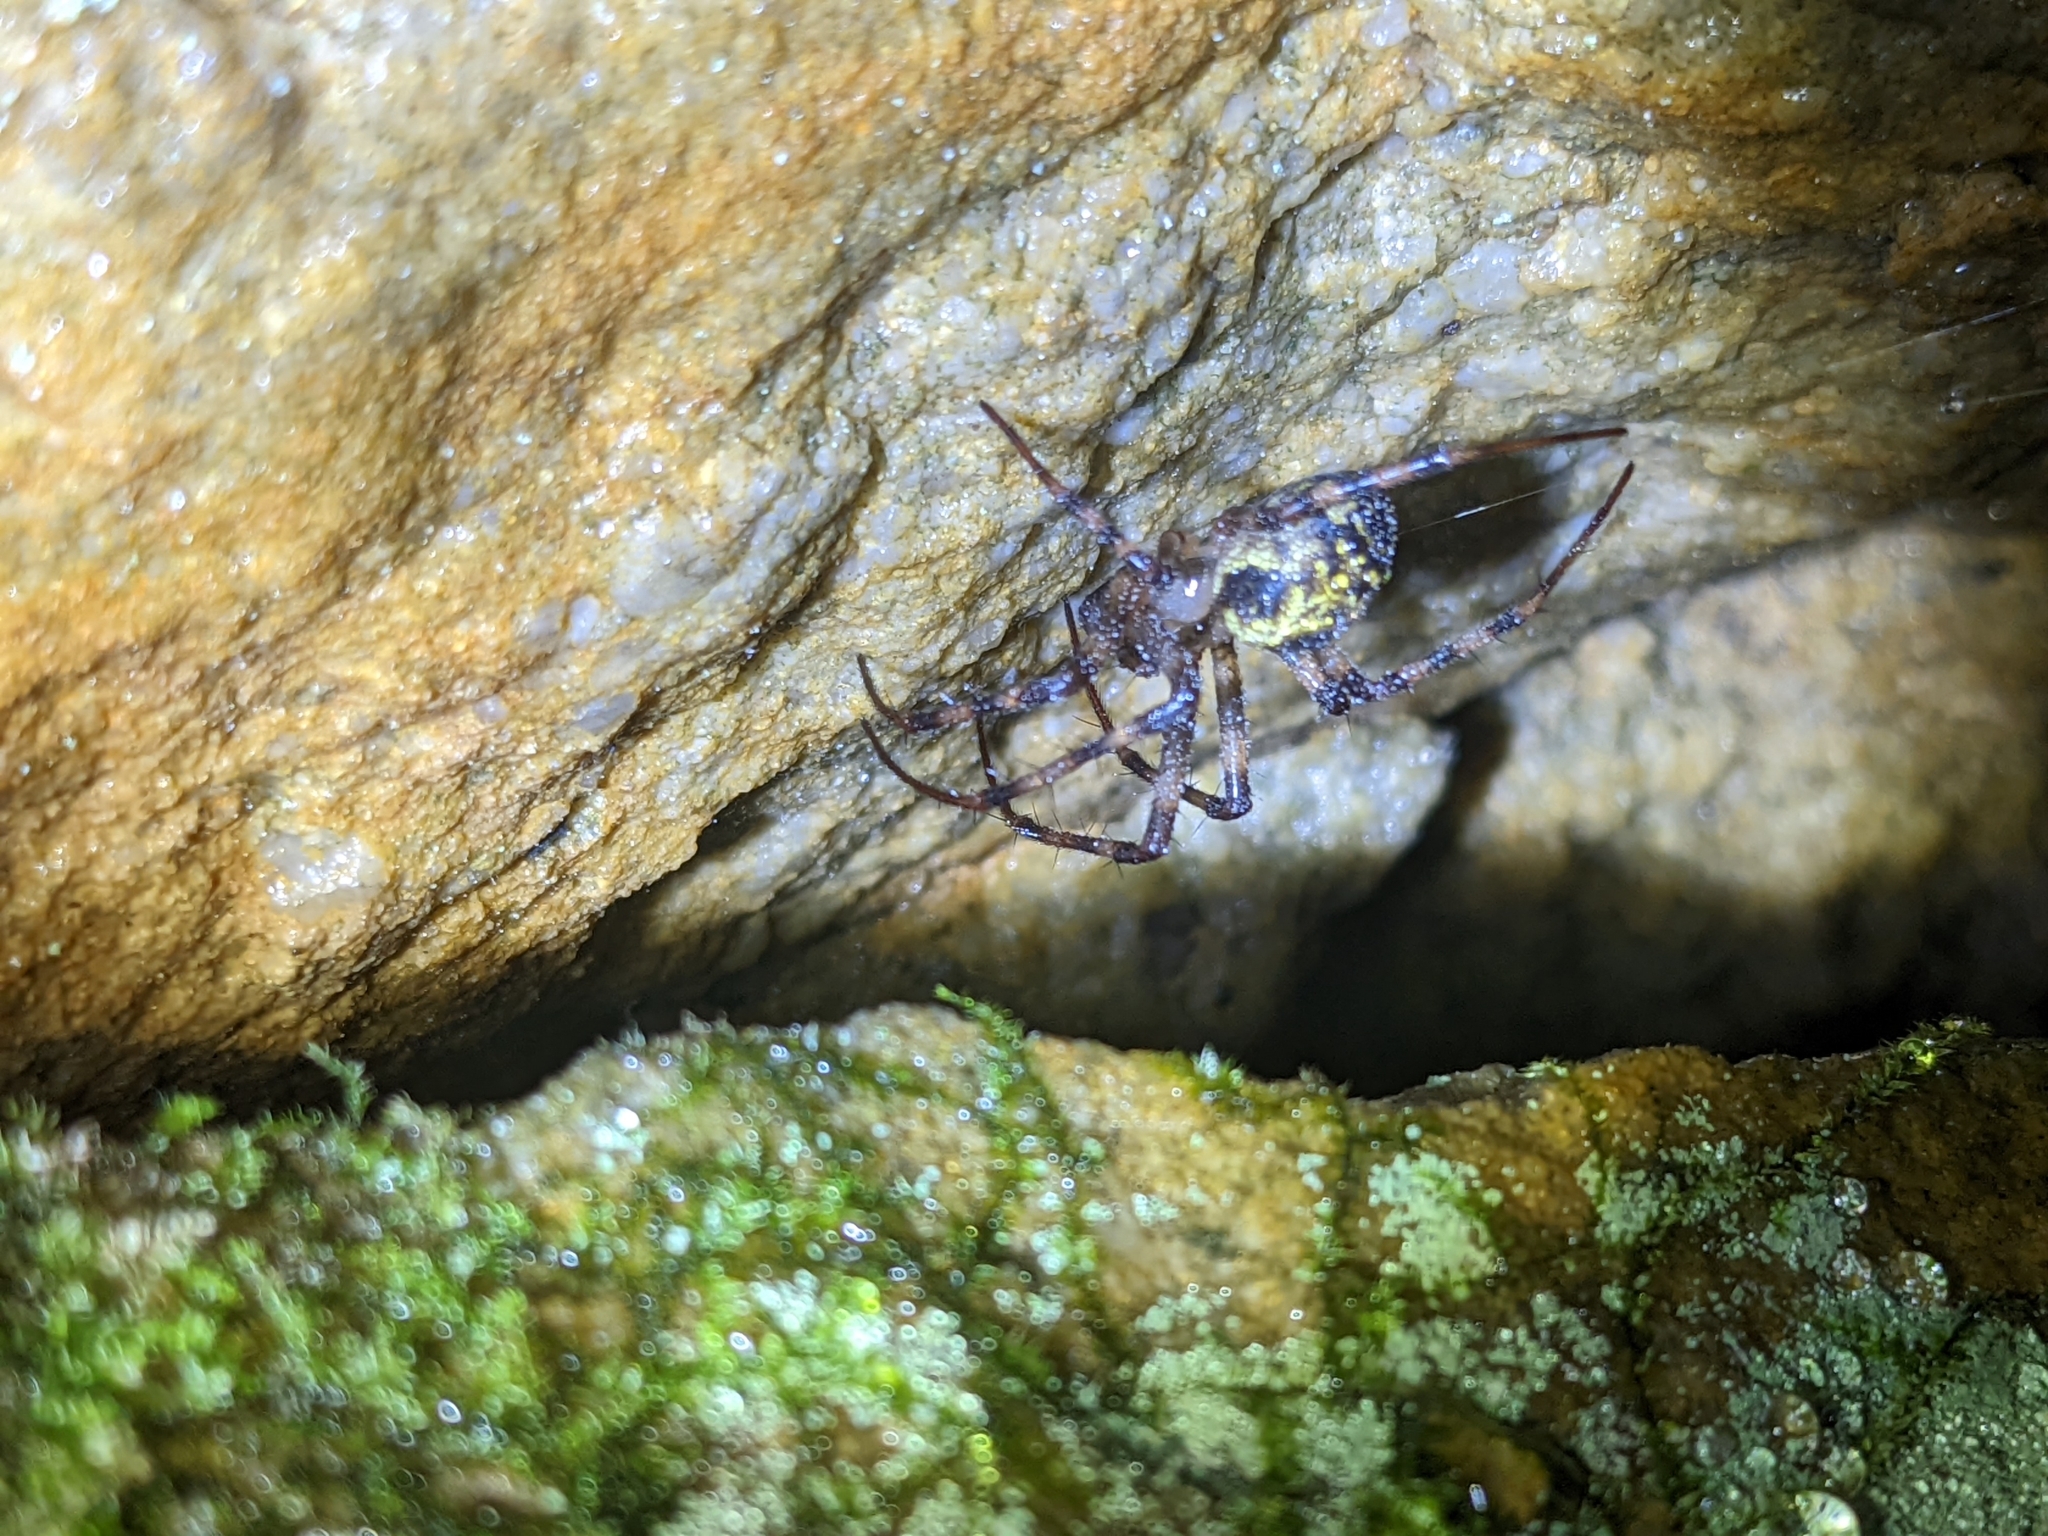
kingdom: Animalia
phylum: Arthropoda
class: Arachnida
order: Araneae
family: Tetragnathidae
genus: Meta
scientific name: Meta ovalis
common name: Eastern cave long-jawed spider
